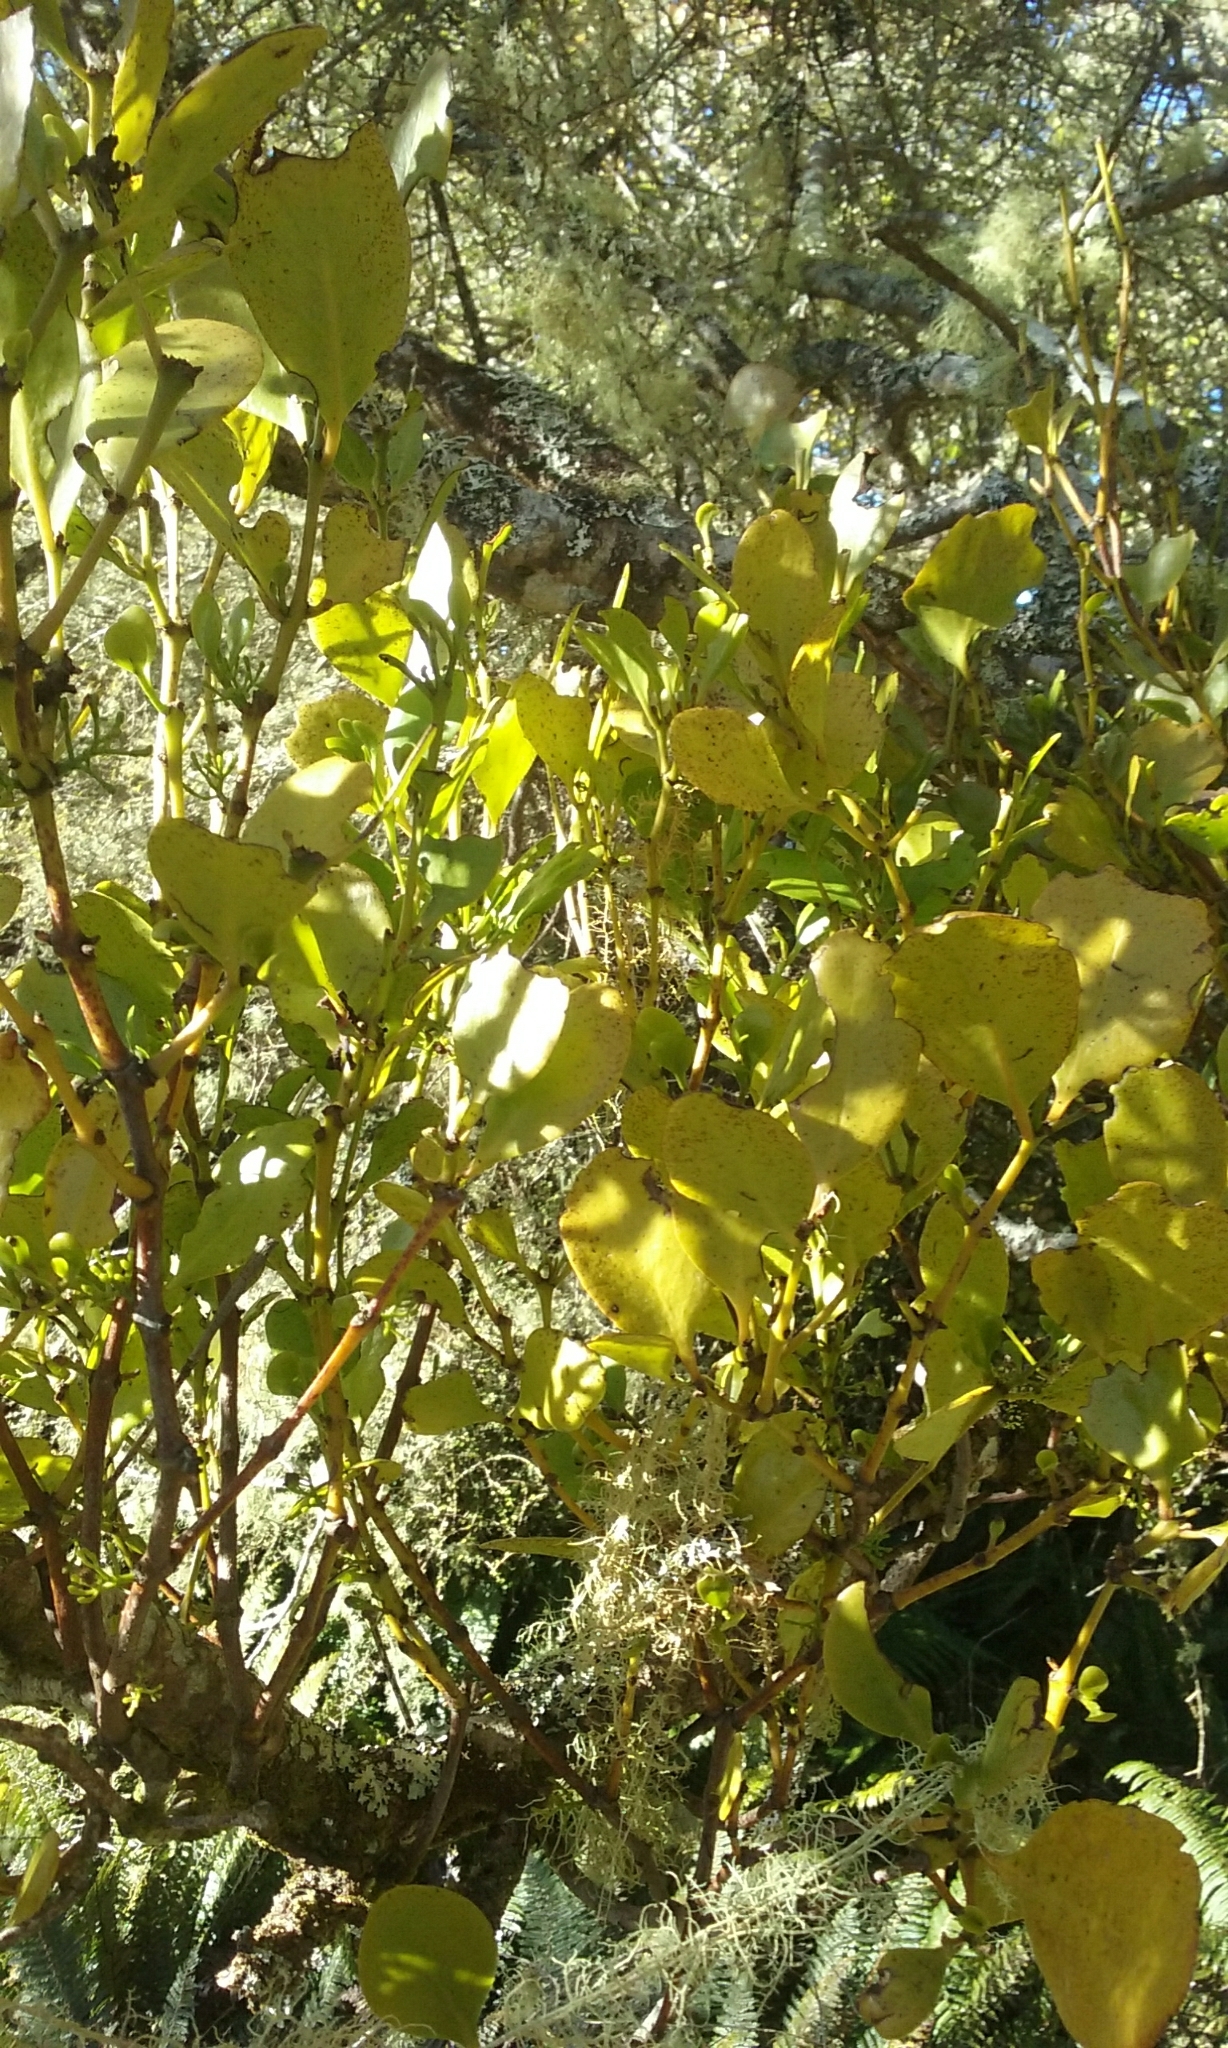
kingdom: Plantae
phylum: Tracheophyta
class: Magnoliopsida
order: Santalales
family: Loranthaceae
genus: Ileostylus
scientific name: Ileostylus micranthus
